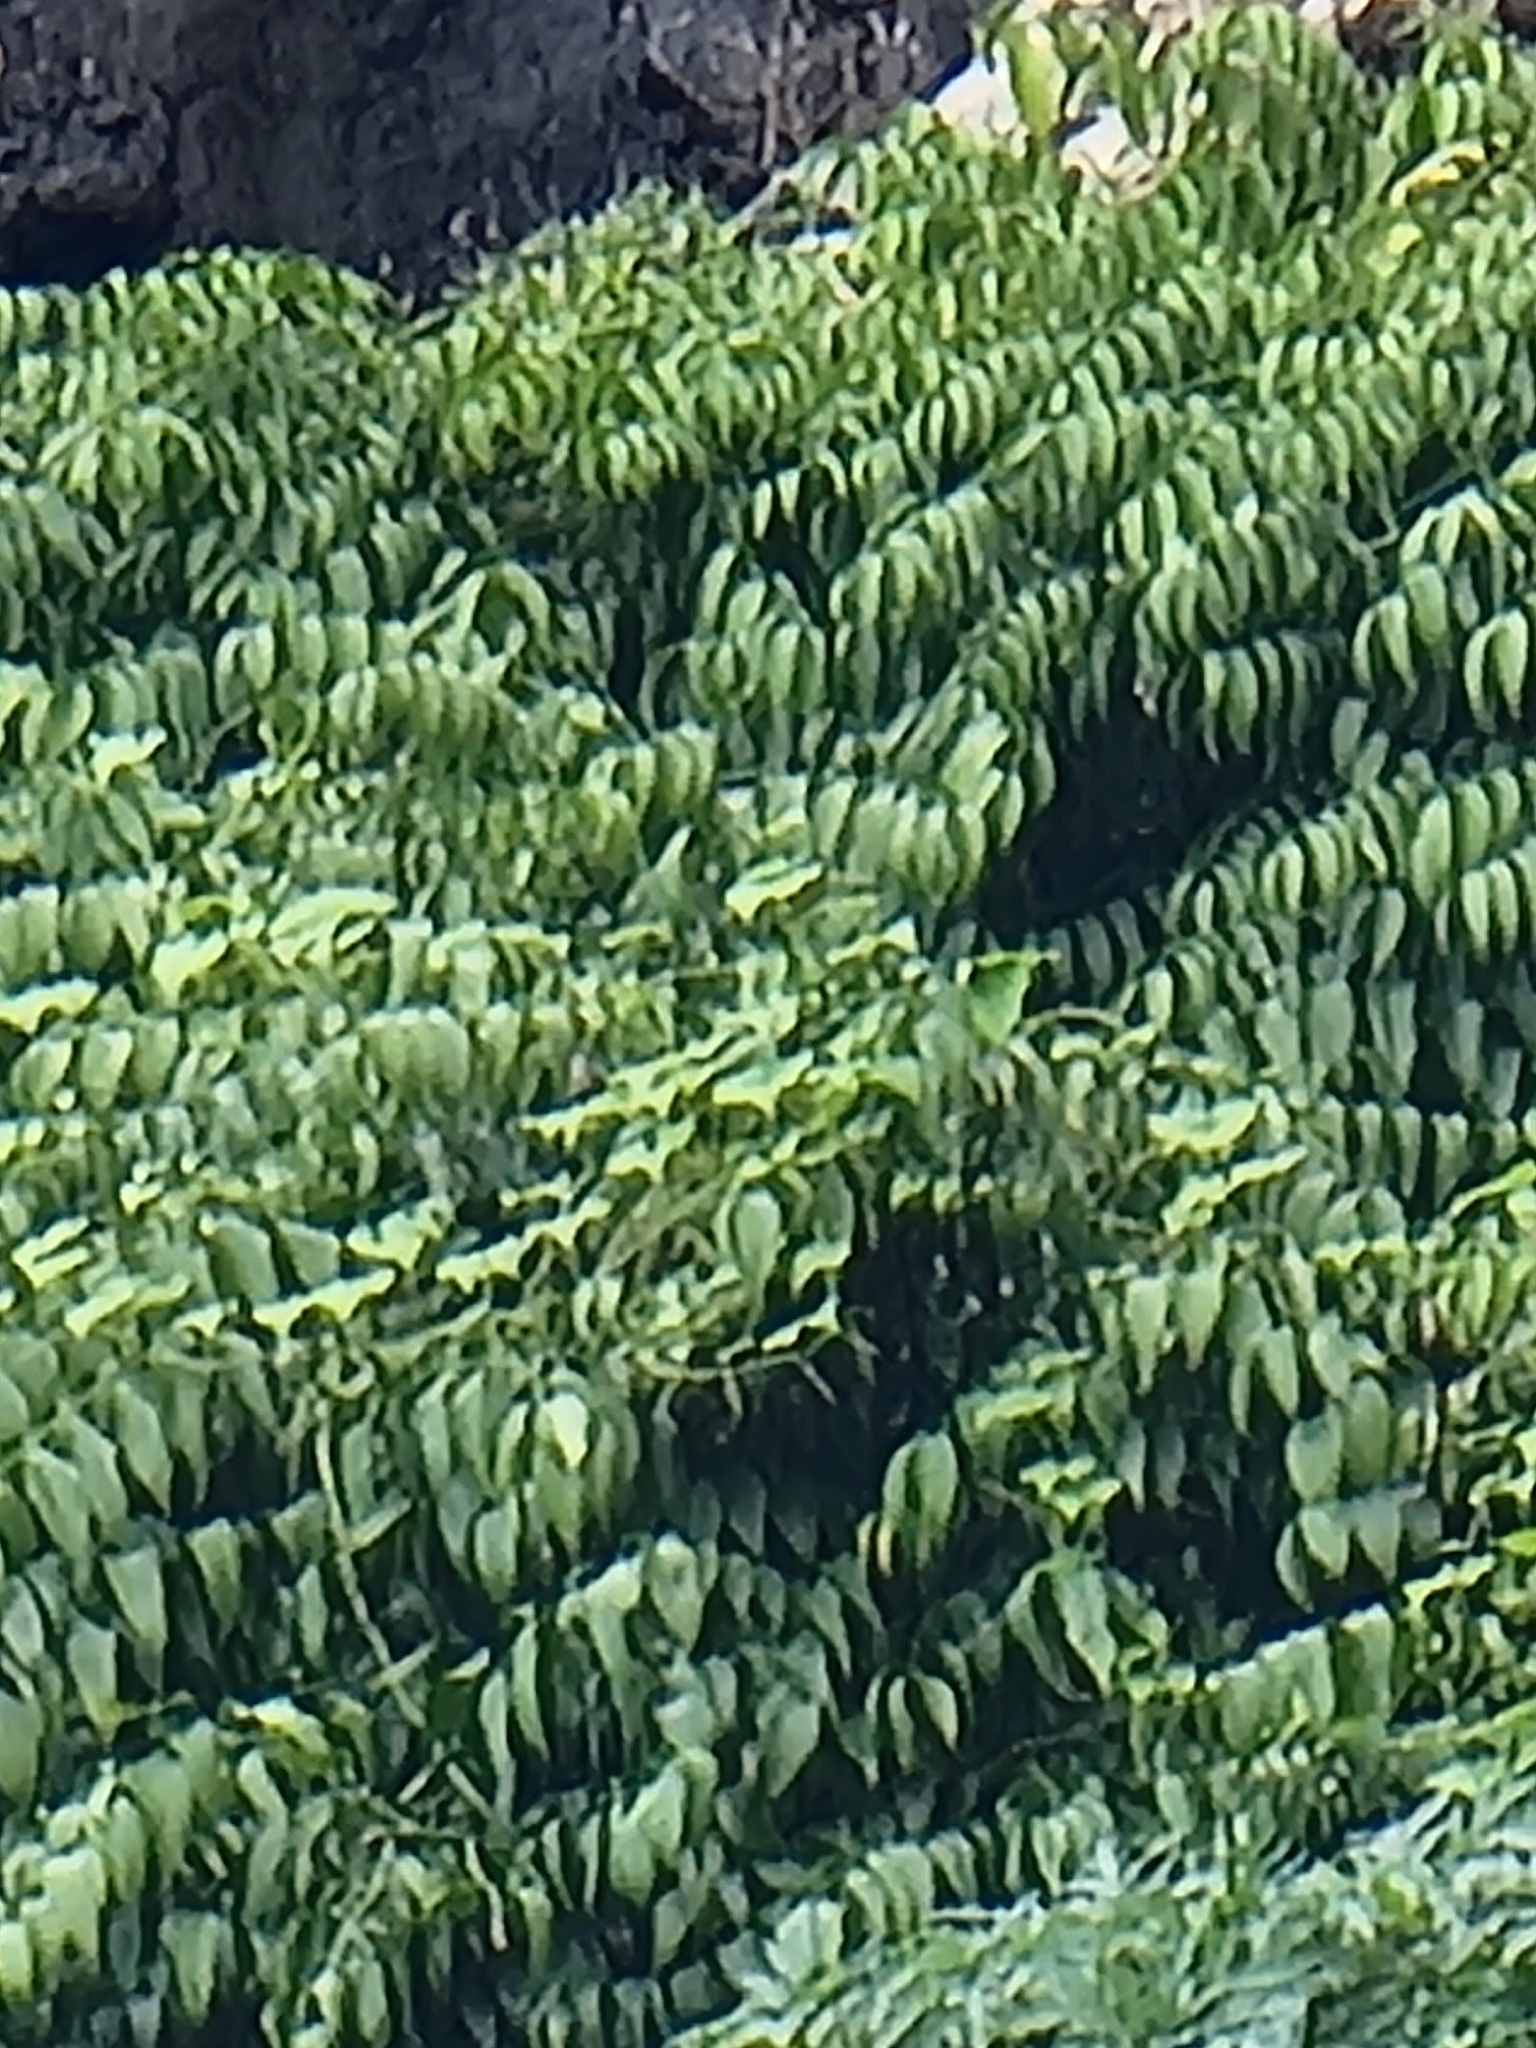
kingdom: Plantae
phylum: Tracheophyta
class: Liliopsida
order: Asparagales
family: Asparagaceae
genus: Semele
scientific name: Semele androgyna
